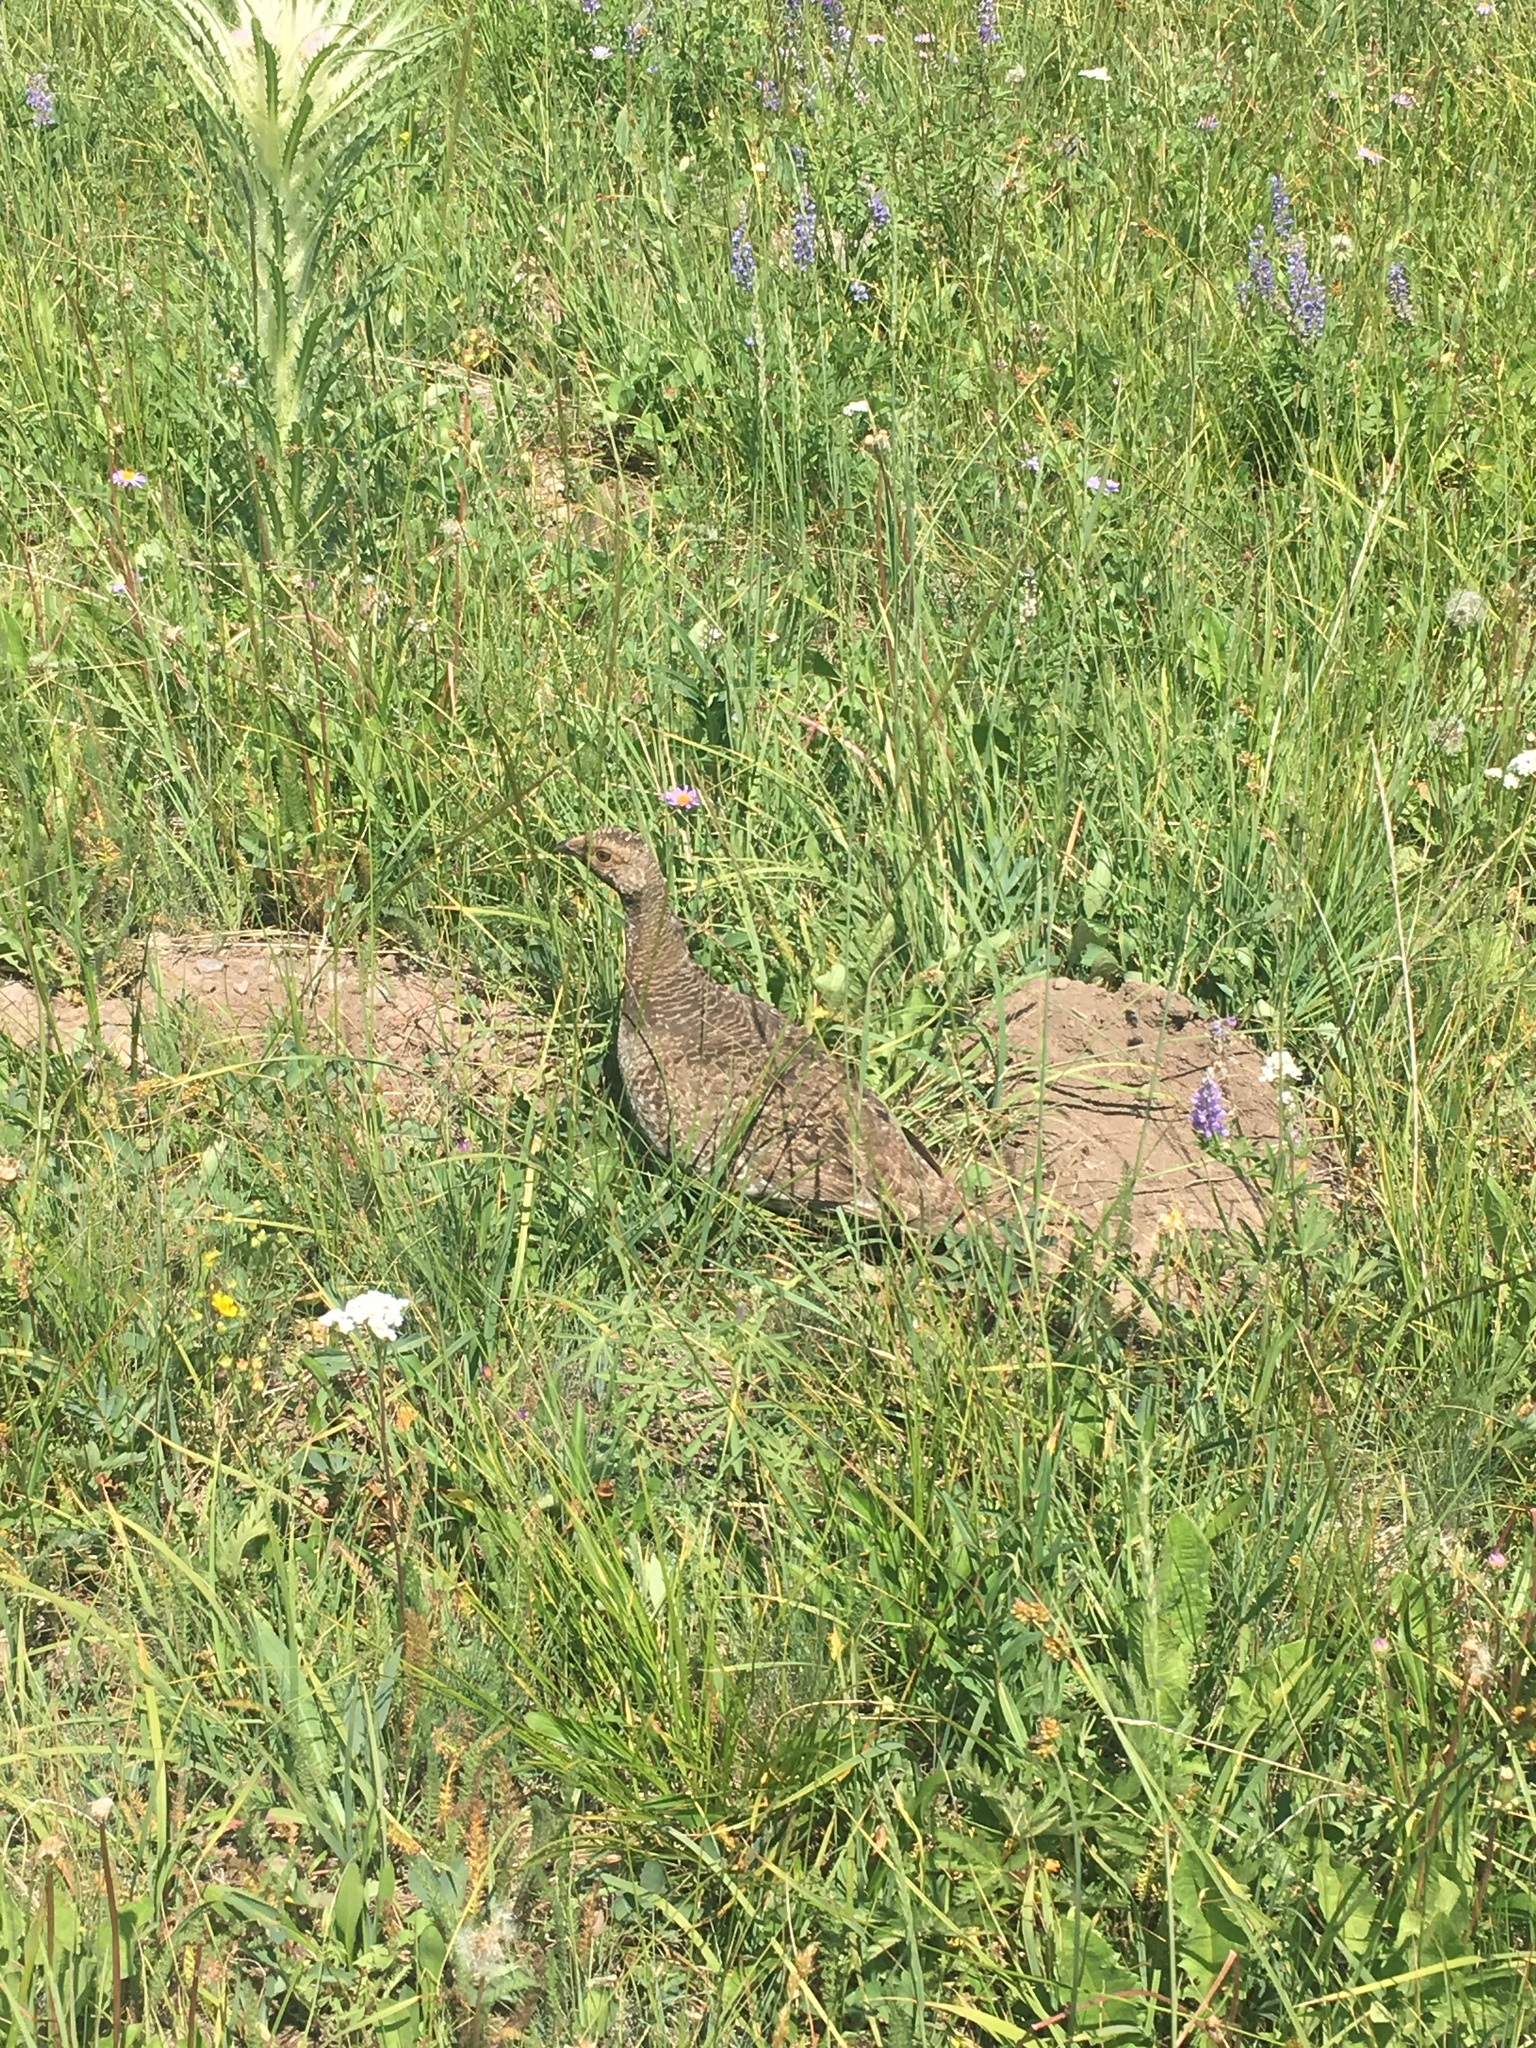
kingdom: Animalia
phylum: Chordata
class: Aves
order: Galliformes
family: Phasianidae
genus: Dendragapus
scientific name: Dendragapus obscurus
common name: Dusky grouse
